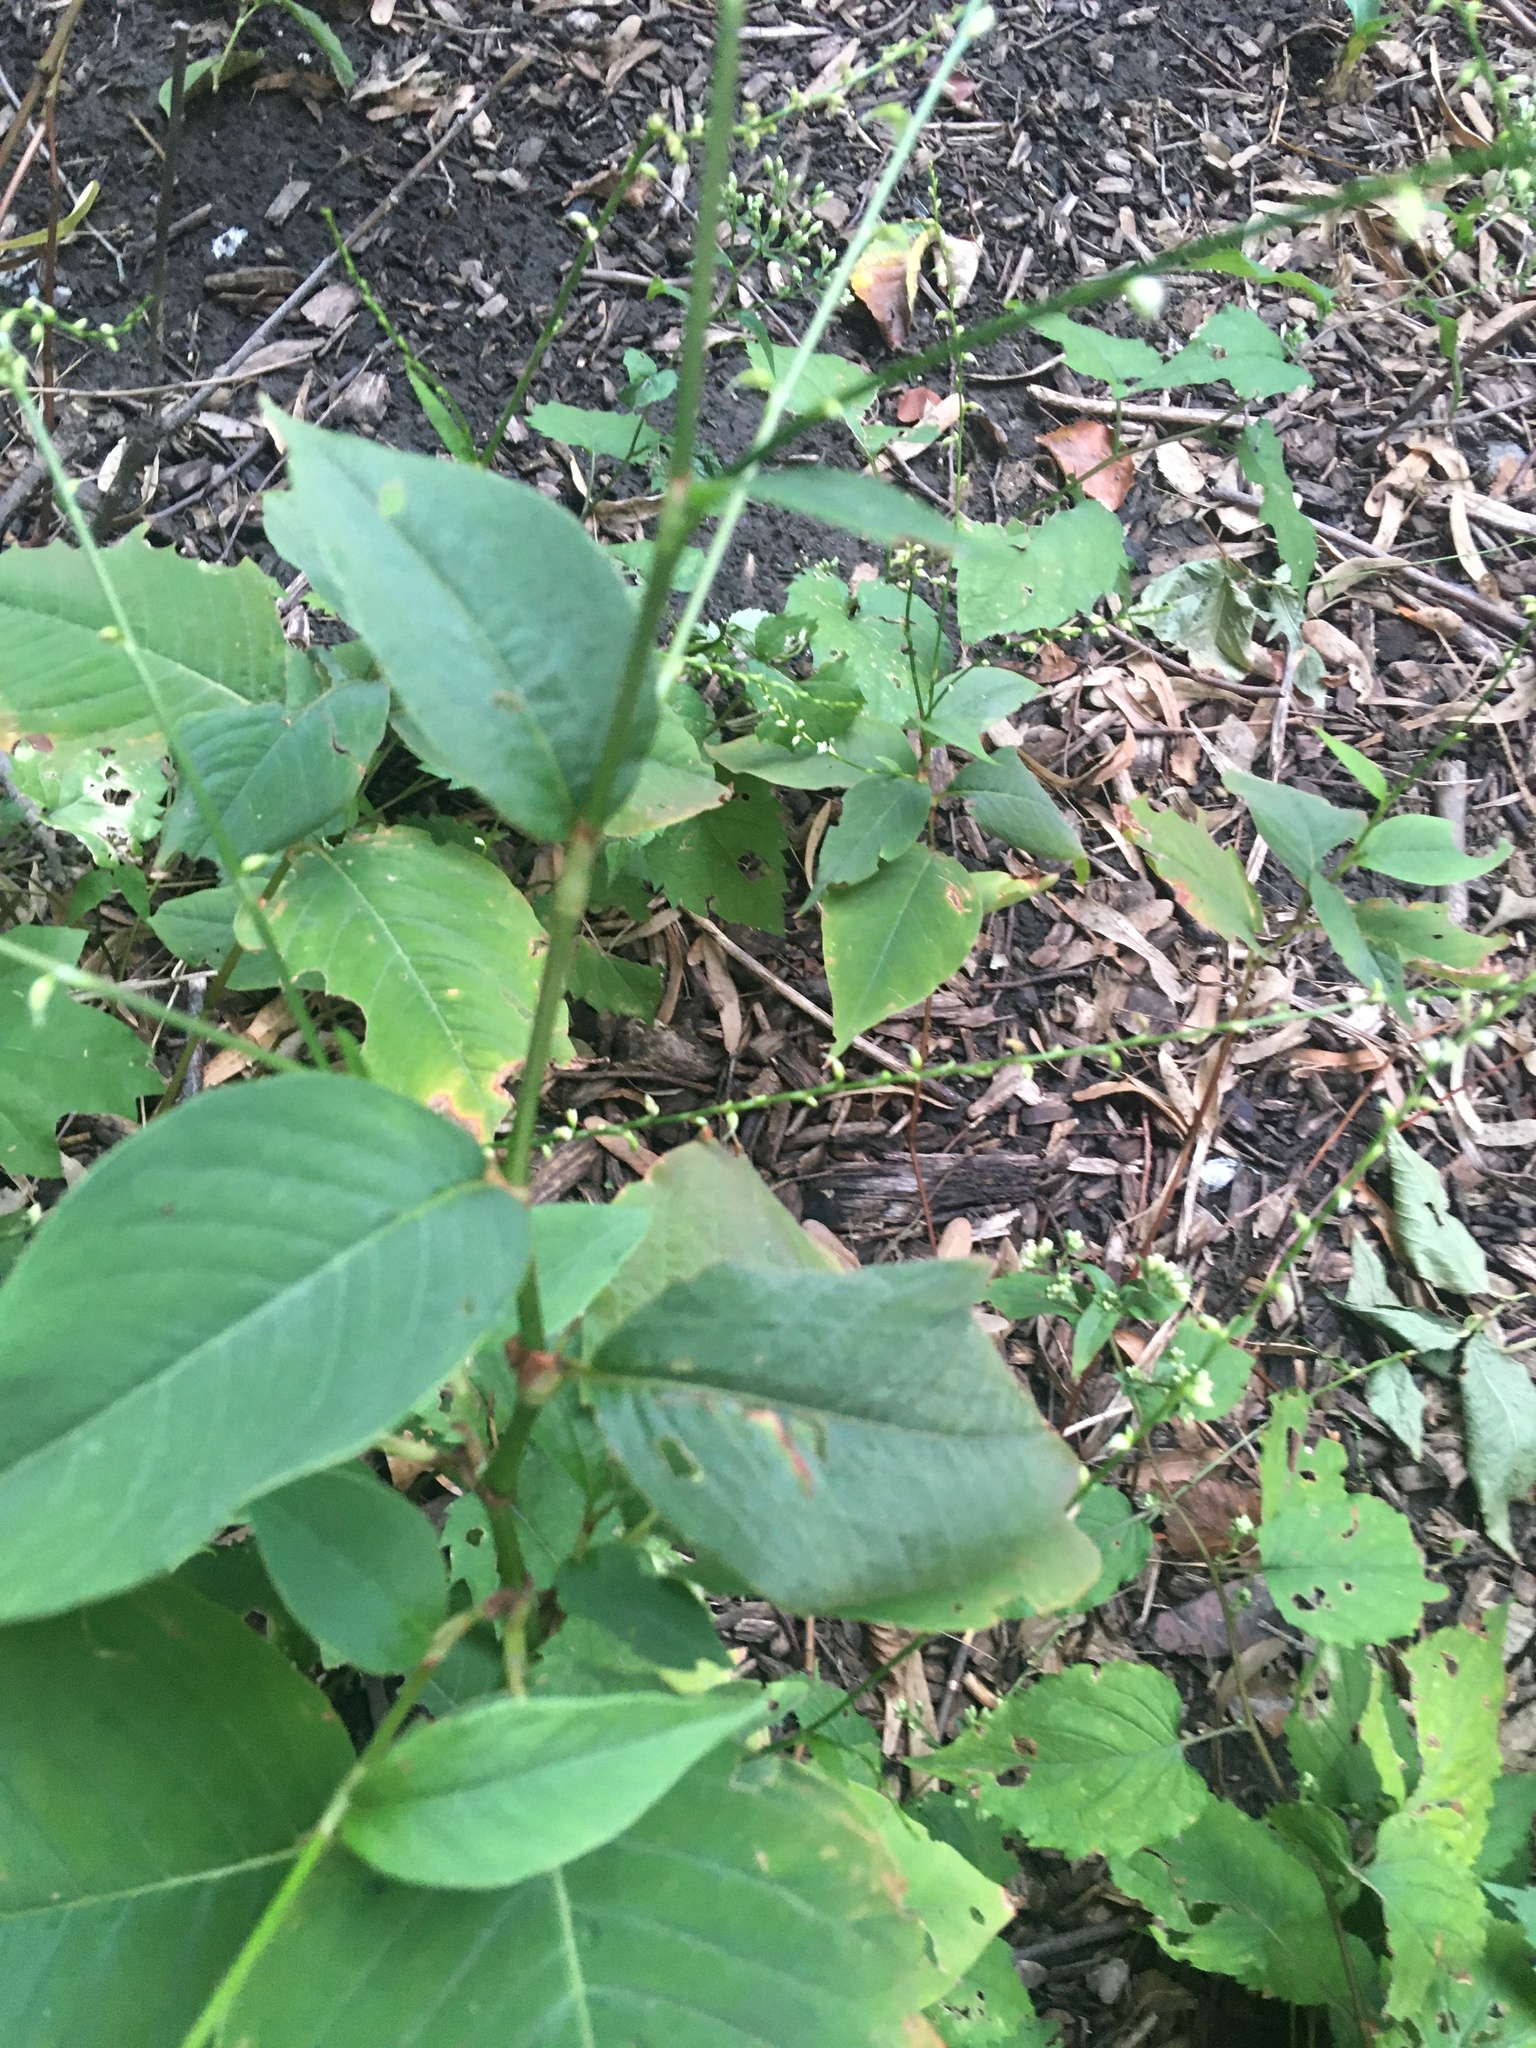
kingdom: Plantae
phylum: Tracheophyta
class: Magnoliopsida
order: Caryophyllales
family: Polygonaceae
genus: Persicaria
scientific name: Persicaria virginiana
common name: Jumpseed
